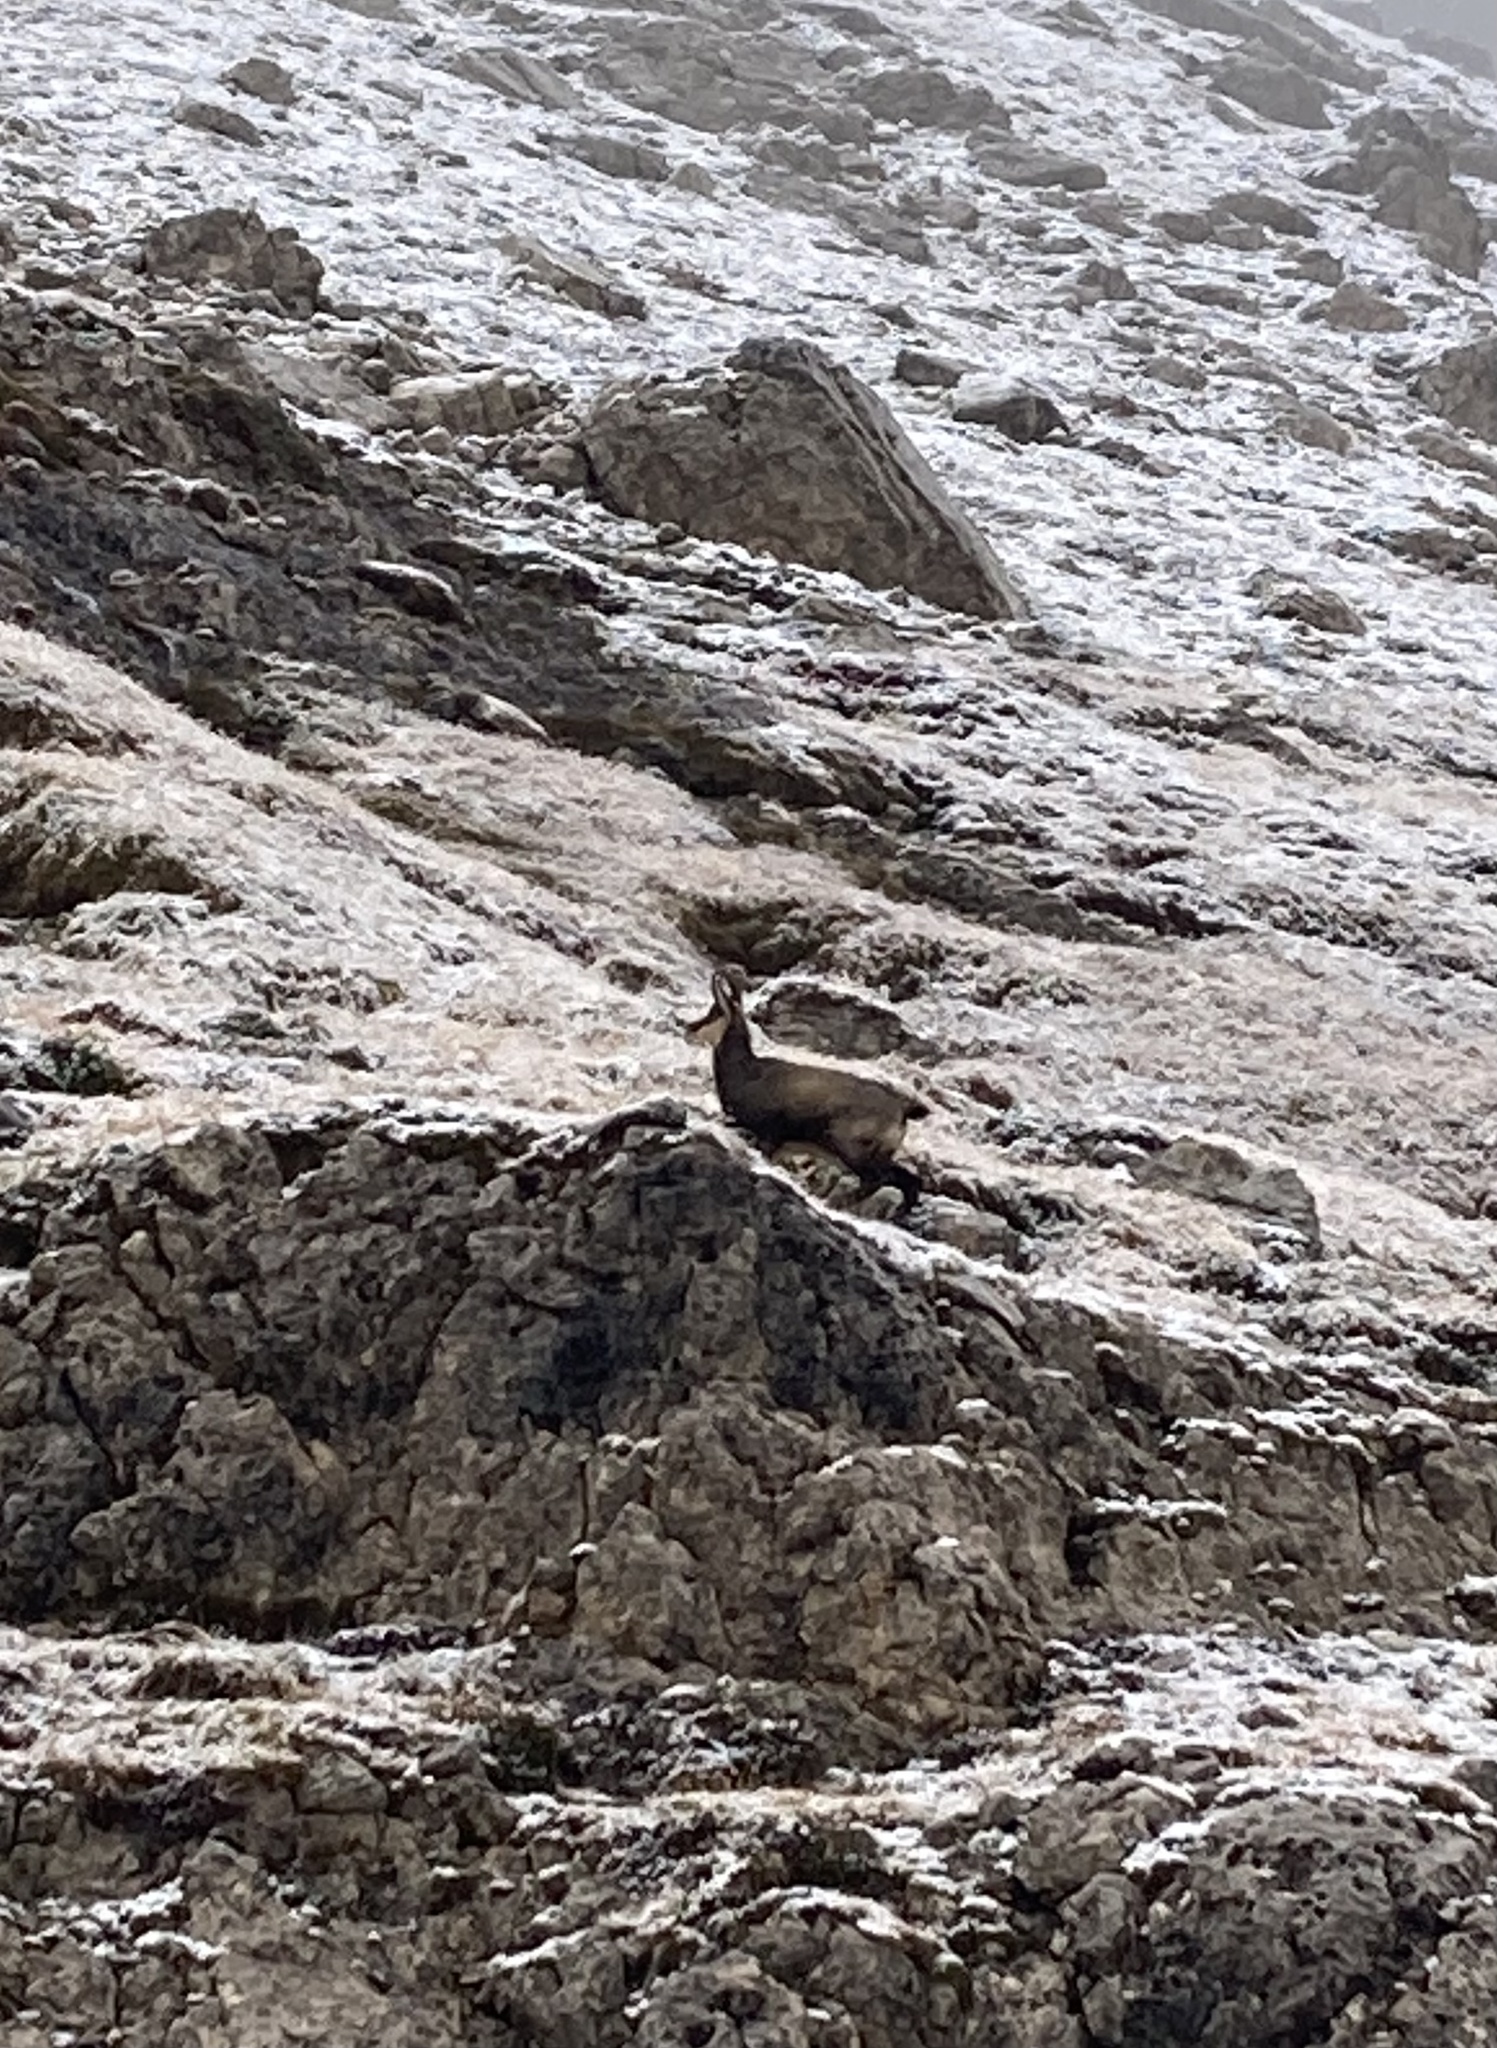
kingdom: Animalia
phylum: Chordata
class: Mammalia
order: Artiodactyla
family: Bovidae
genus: Rupicapra
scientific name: Rupicapra rupicapra
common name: Chamois
